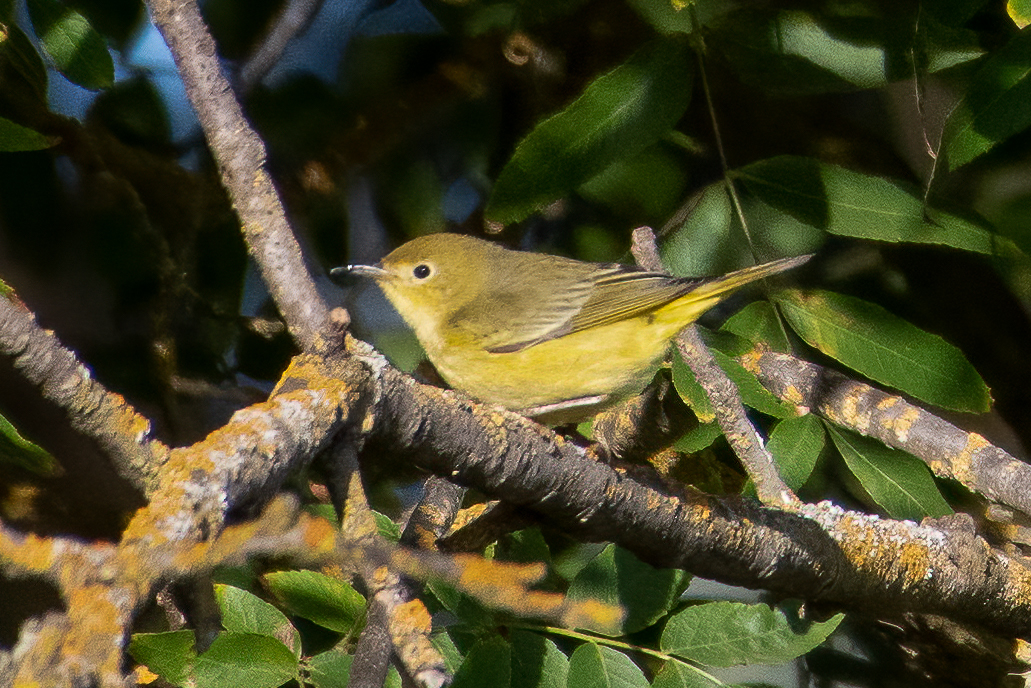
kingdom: Animalia
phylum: Chordata
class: Aves
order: Passeriformes
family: Parulidae
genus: Setophaga
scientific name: Setophaga petechia
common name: Yellow warbler
